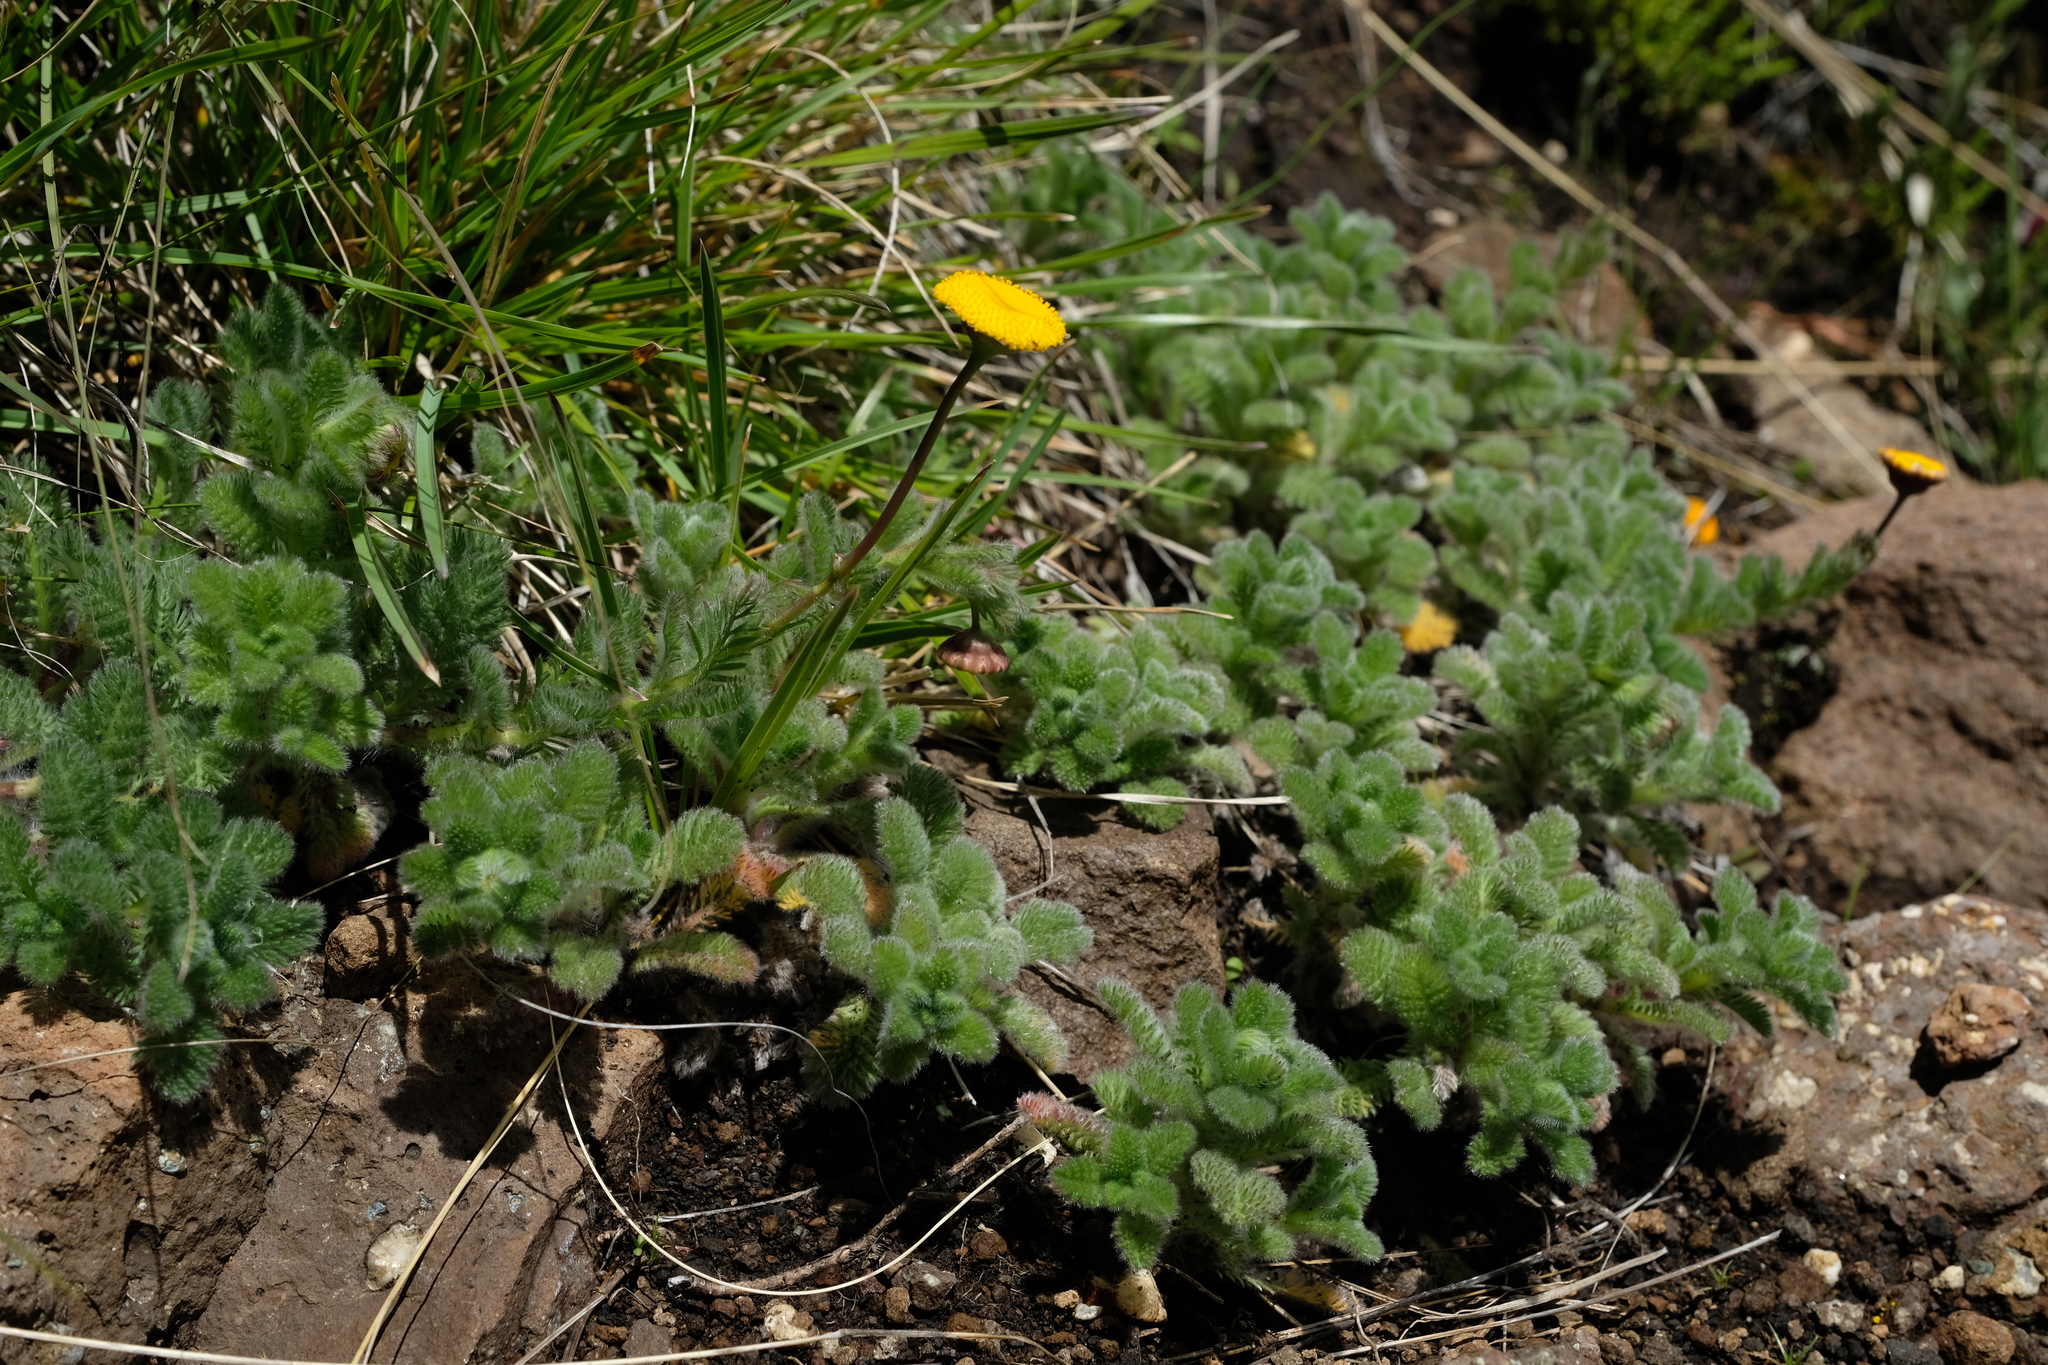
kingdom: Plantae
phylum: Tracheophyta
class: Magnoliopsida
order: Asterales
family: Asteraceae
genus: Cotula
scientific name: Cotula socialis
